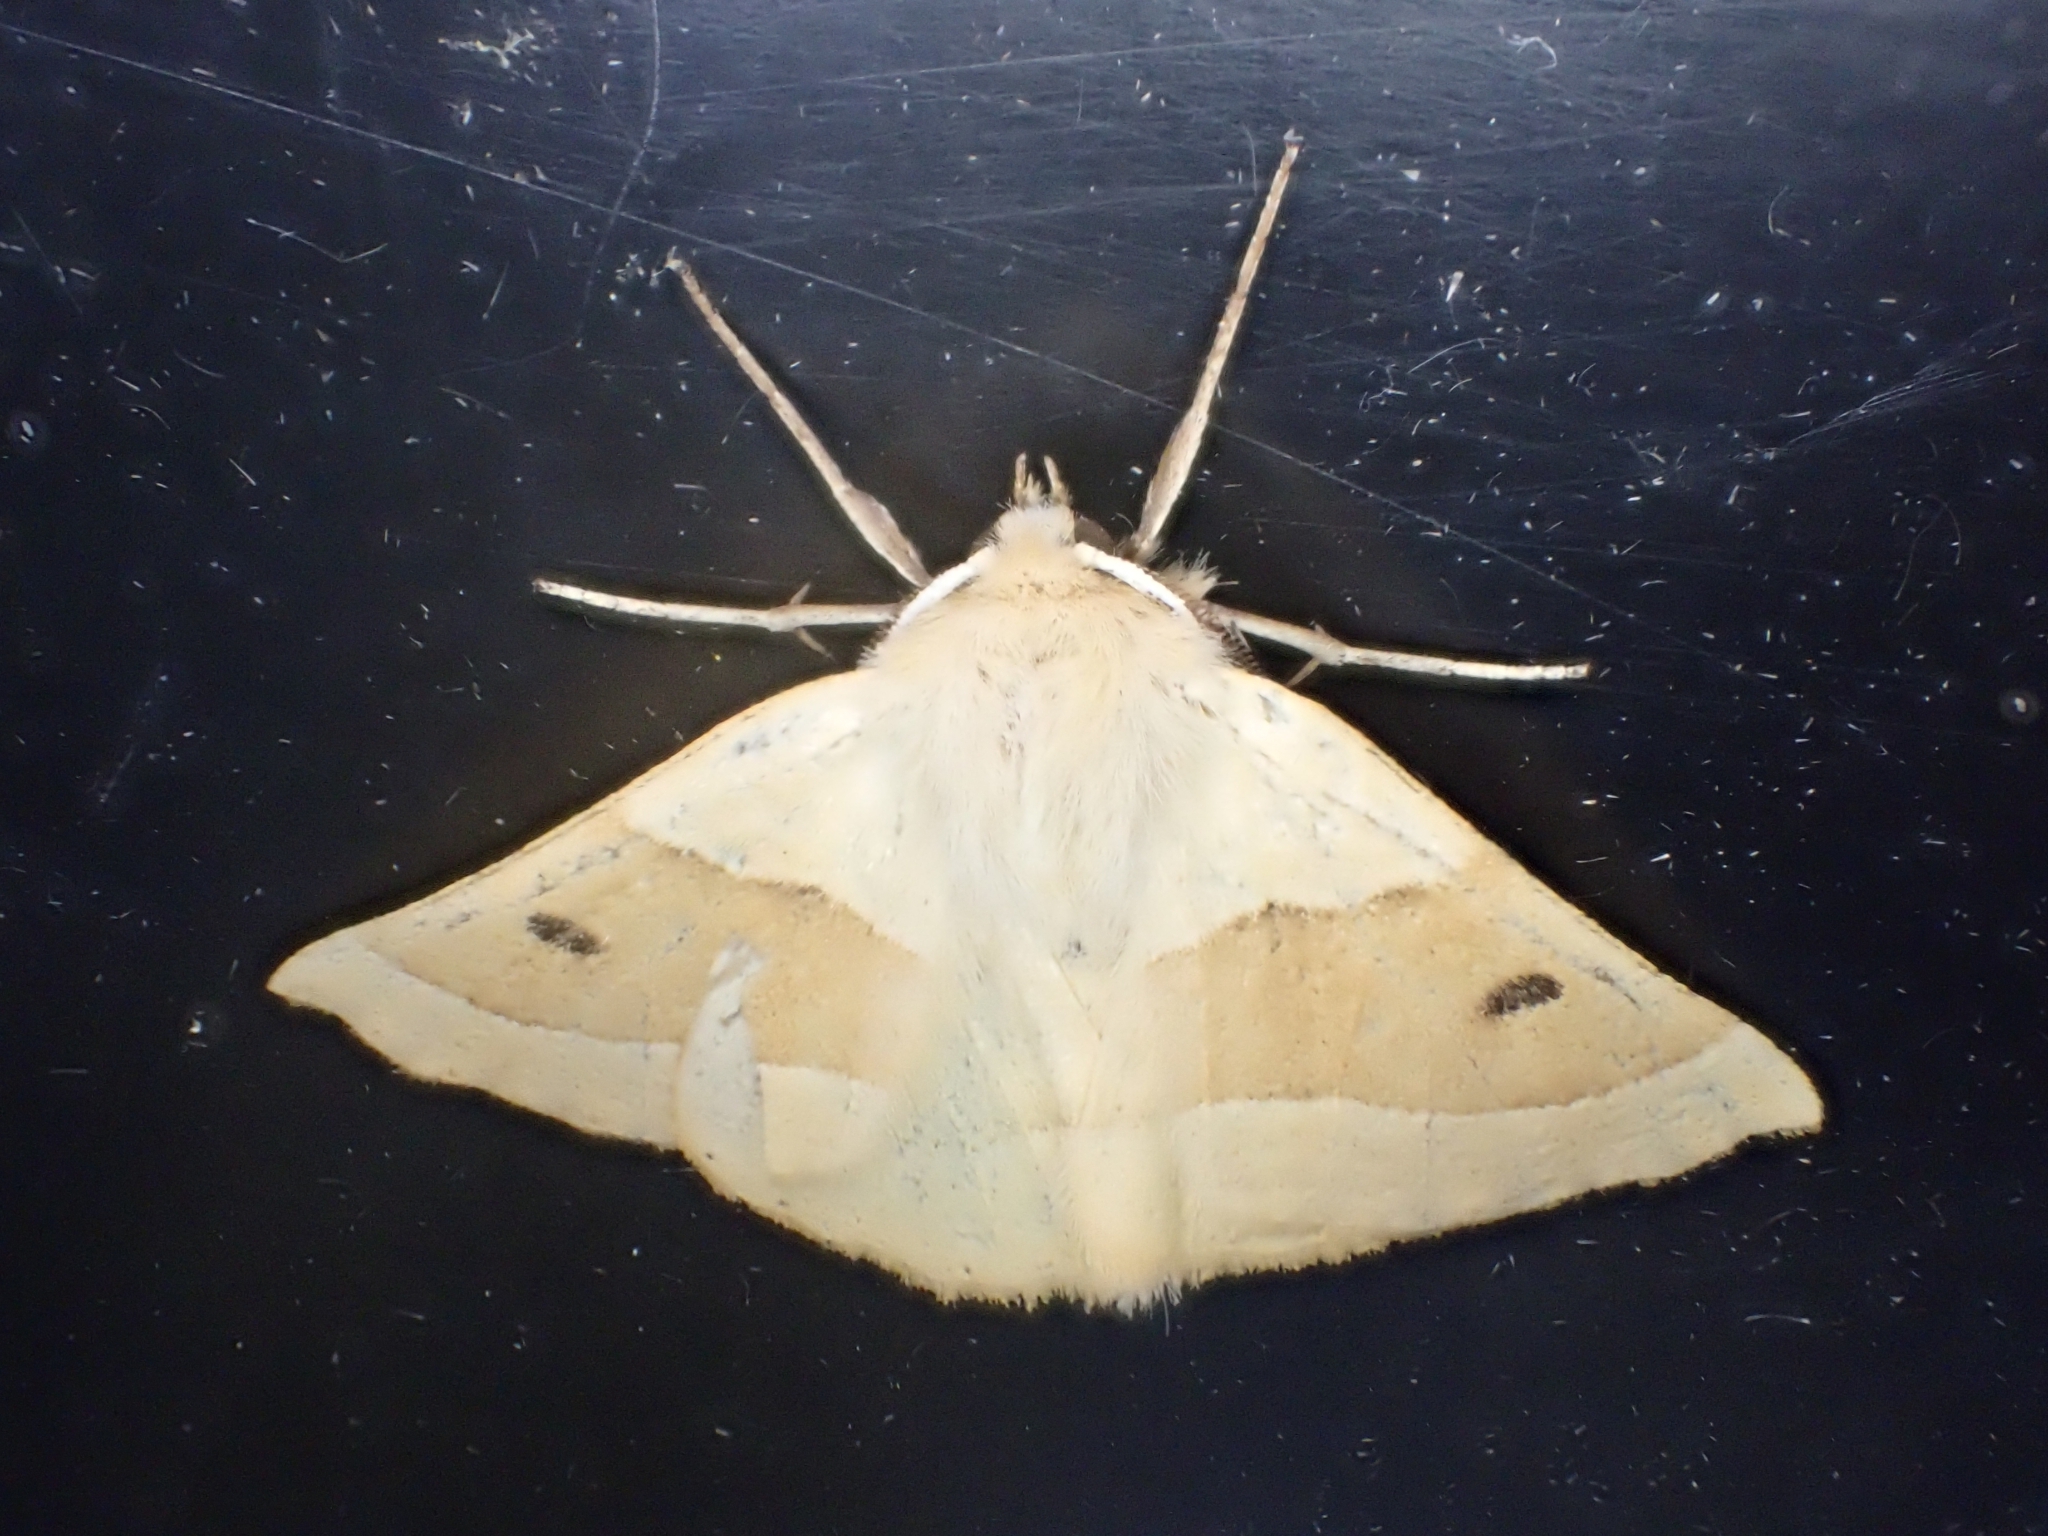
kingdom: Animalia
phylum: Arthropoda
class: Insecta
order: Lepidoptera
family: Geometridae
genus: Crocallis
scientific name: Crocallis elinguaria
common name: Scalloped oak
